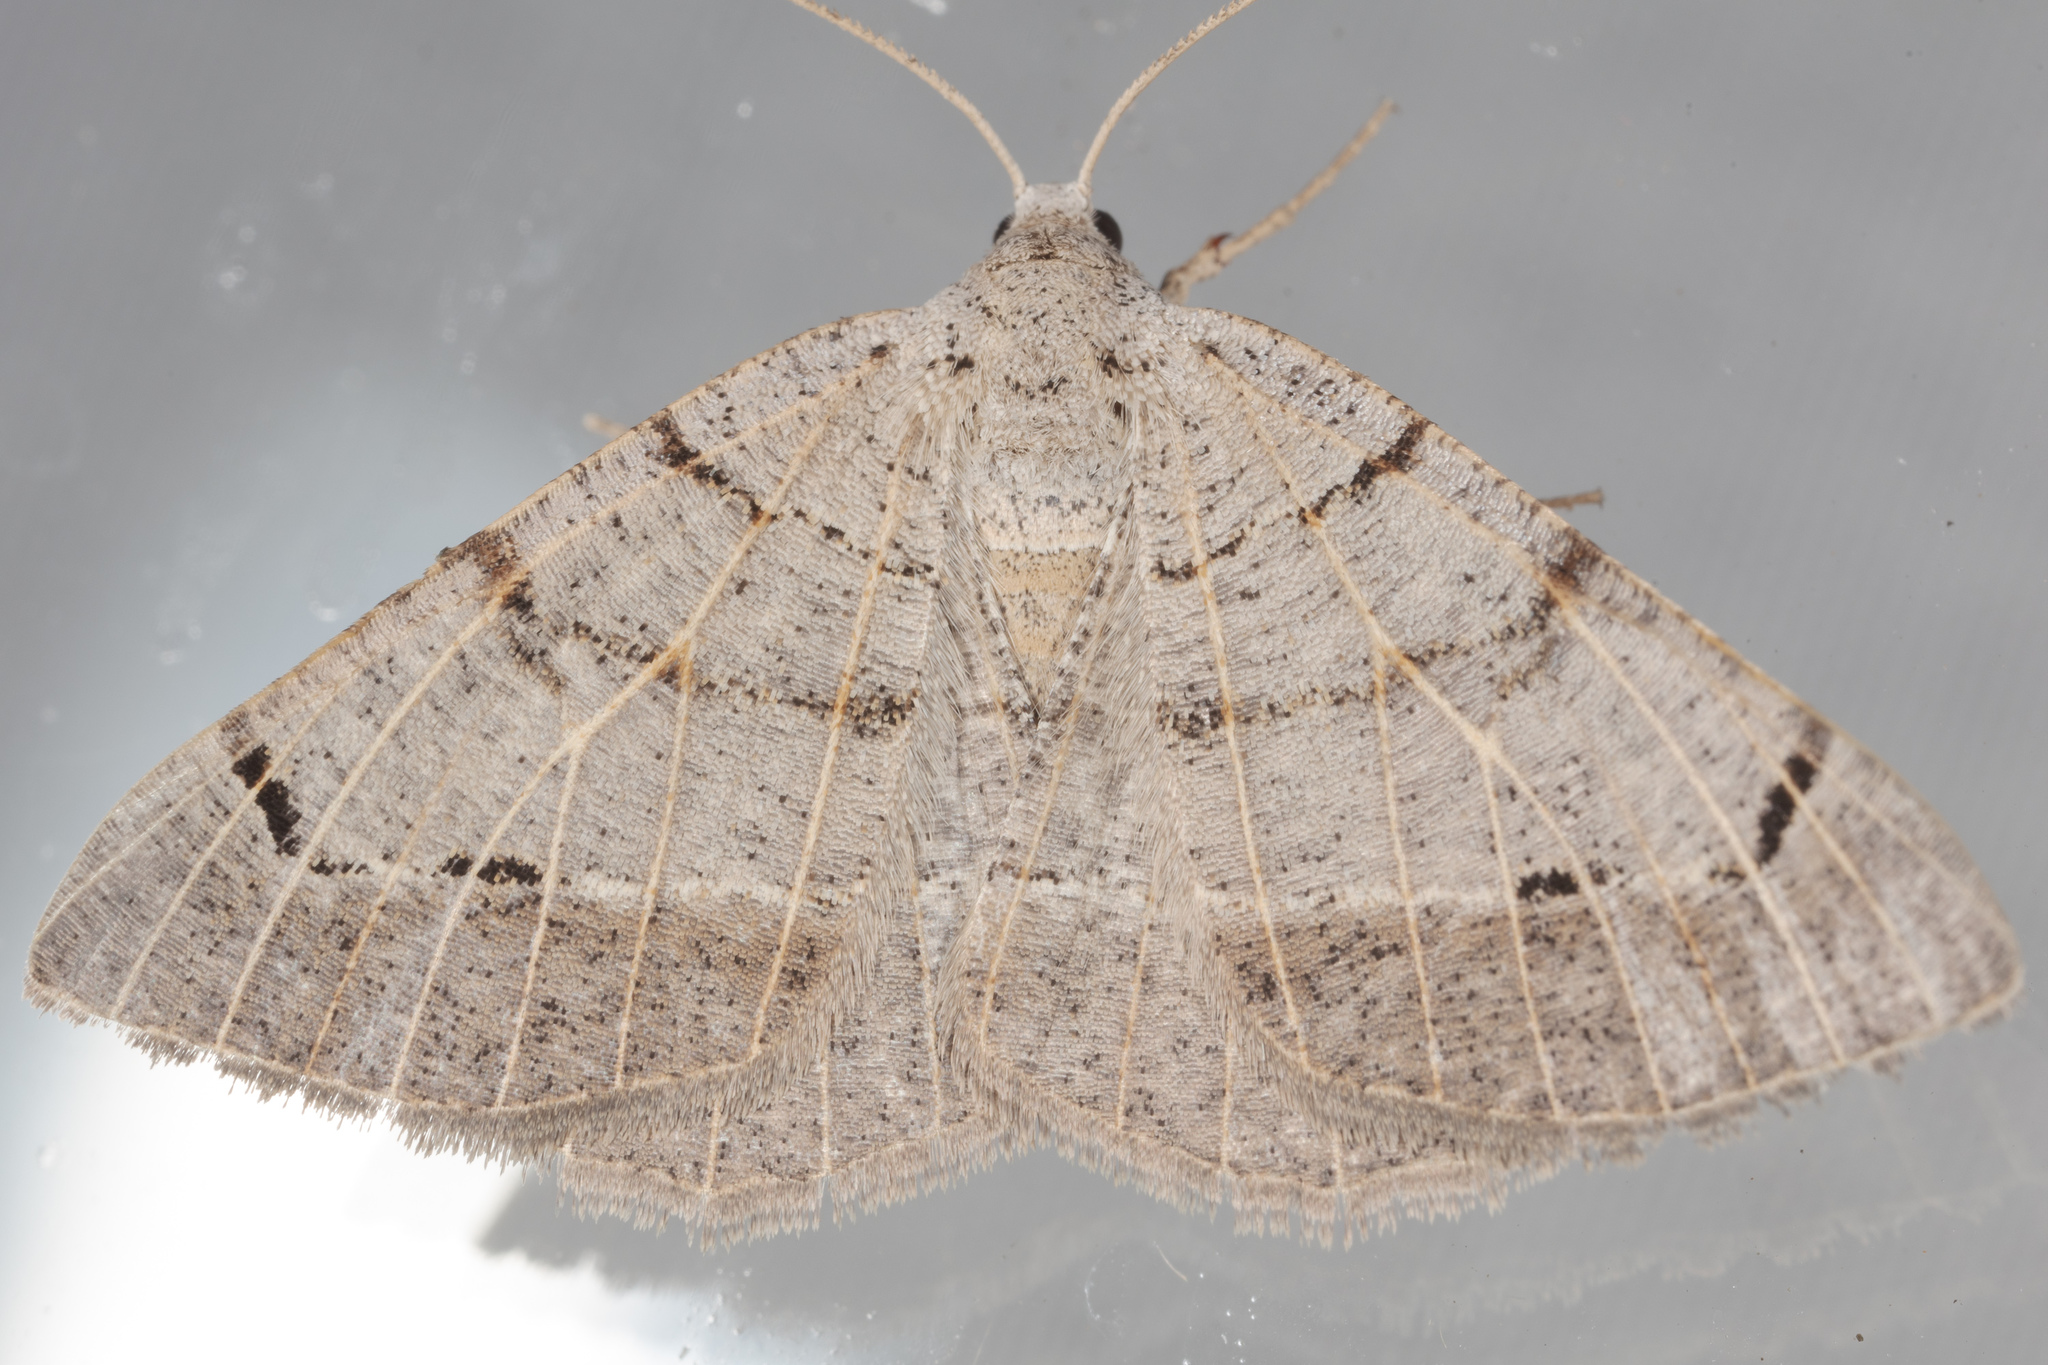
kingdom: Animalia
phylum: Arthropoda
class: Insecta
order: Lepidoptera
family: Geometridae
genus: Isturgia
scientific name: Isturgia dislocaria
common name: Pale-viened enconista
